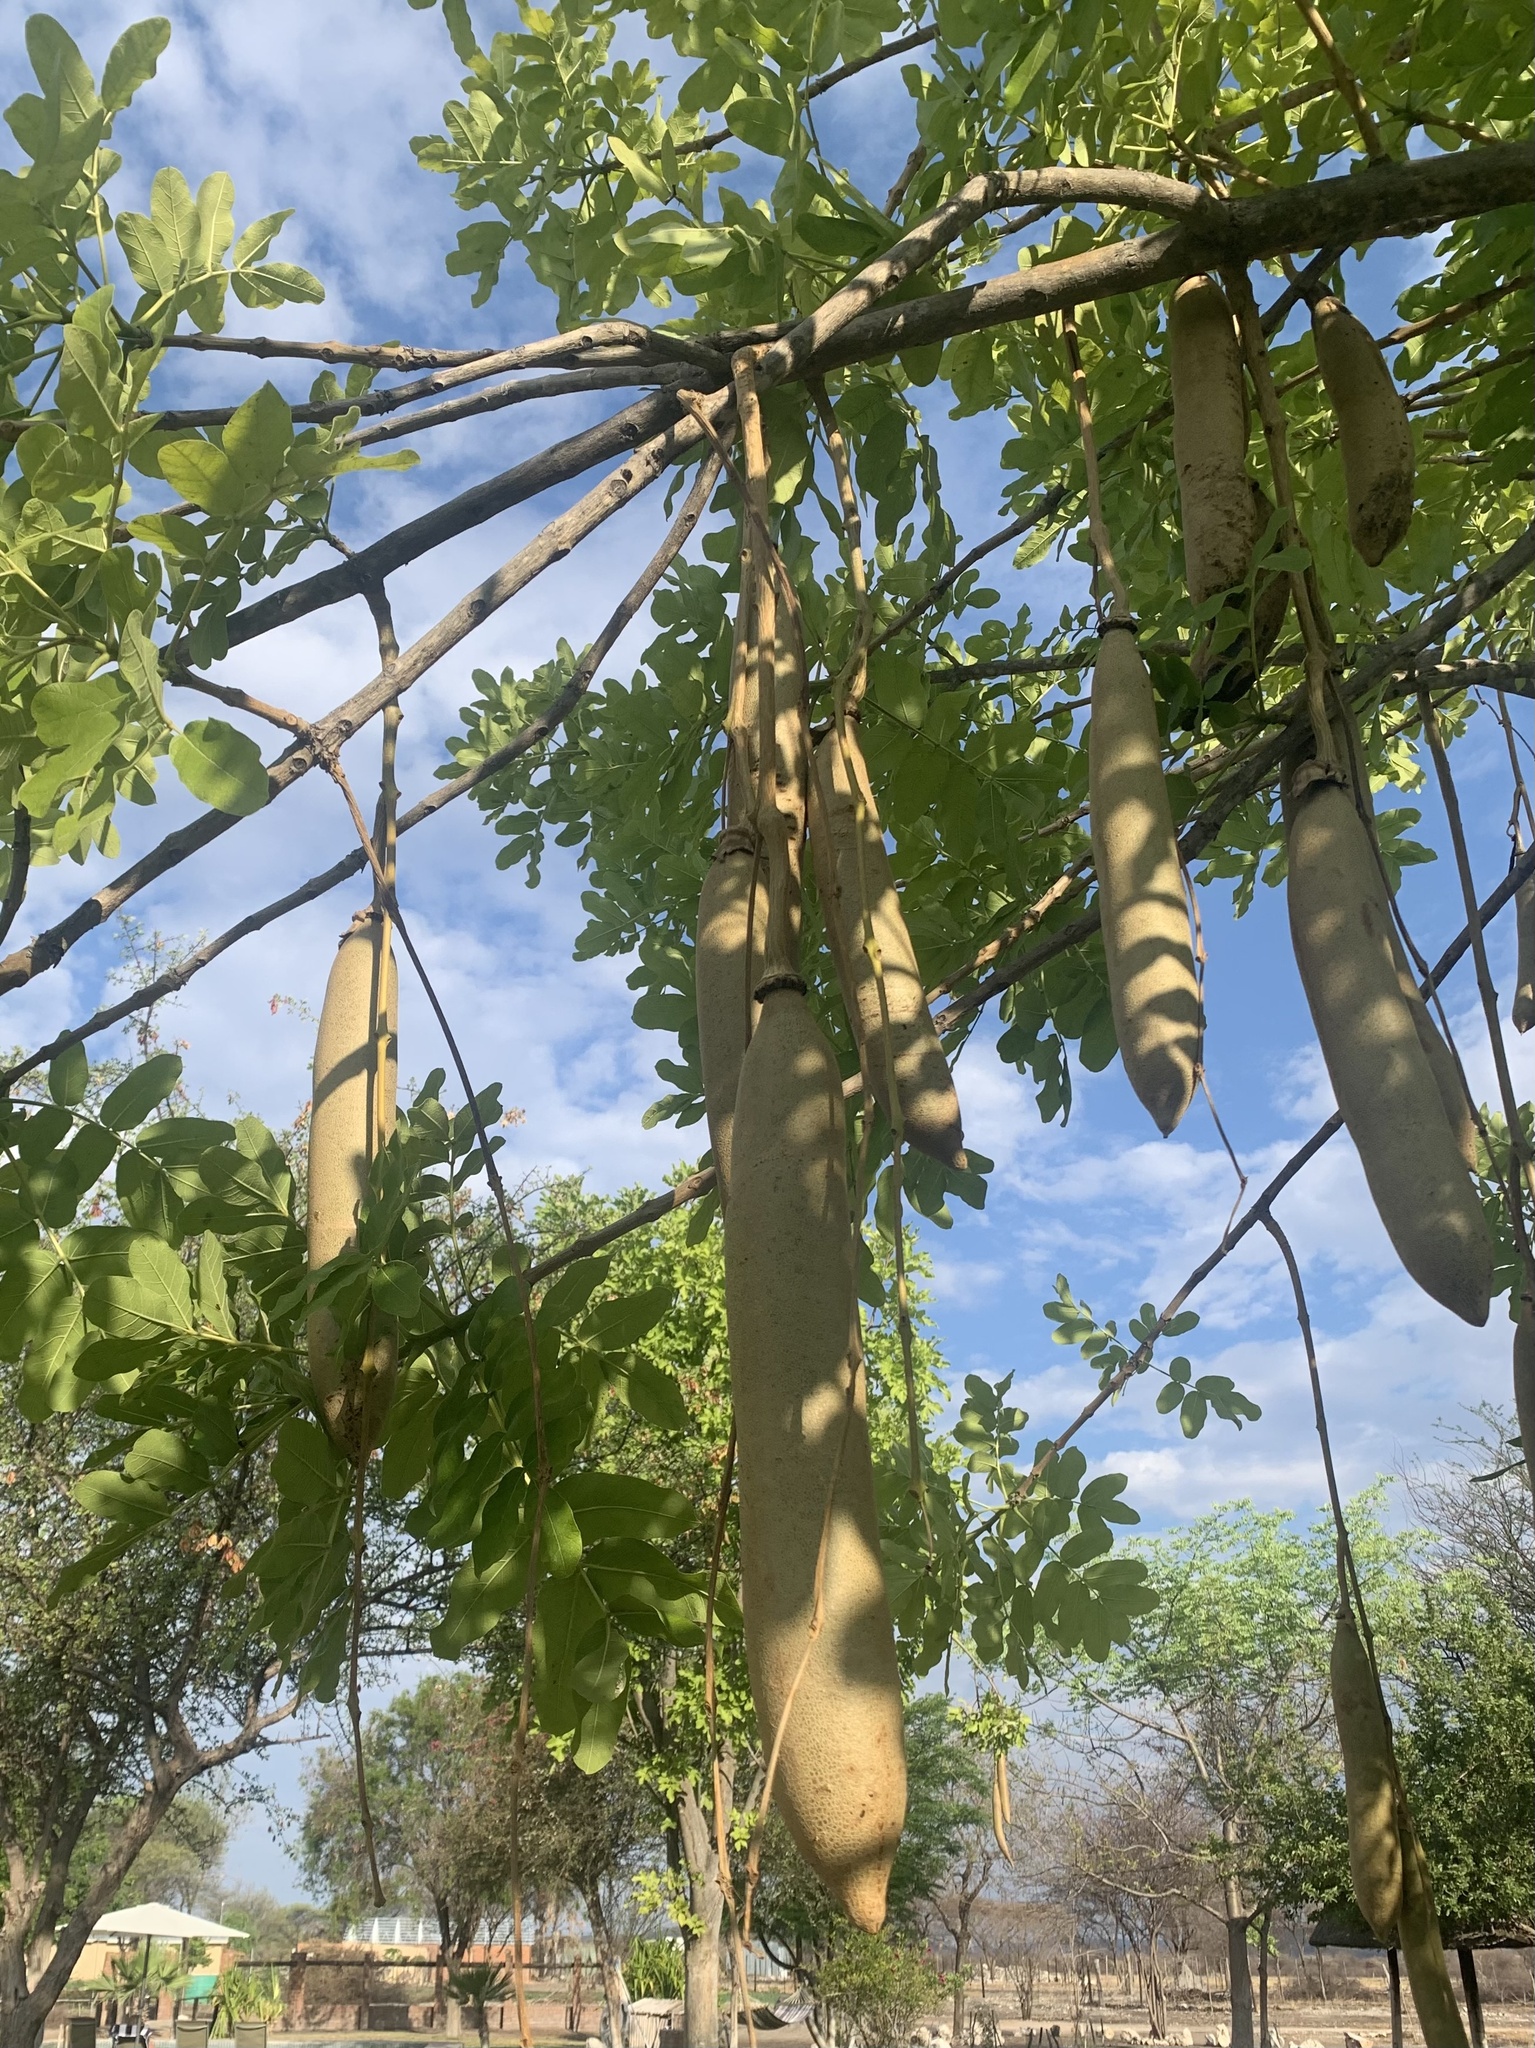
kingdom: Plantae
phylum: Tracheophyta
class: Magnoliopsida
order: Lamiales
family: Bignoniaceae
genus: Kigelia
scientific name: Kigelia africana
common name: Sausage tree
